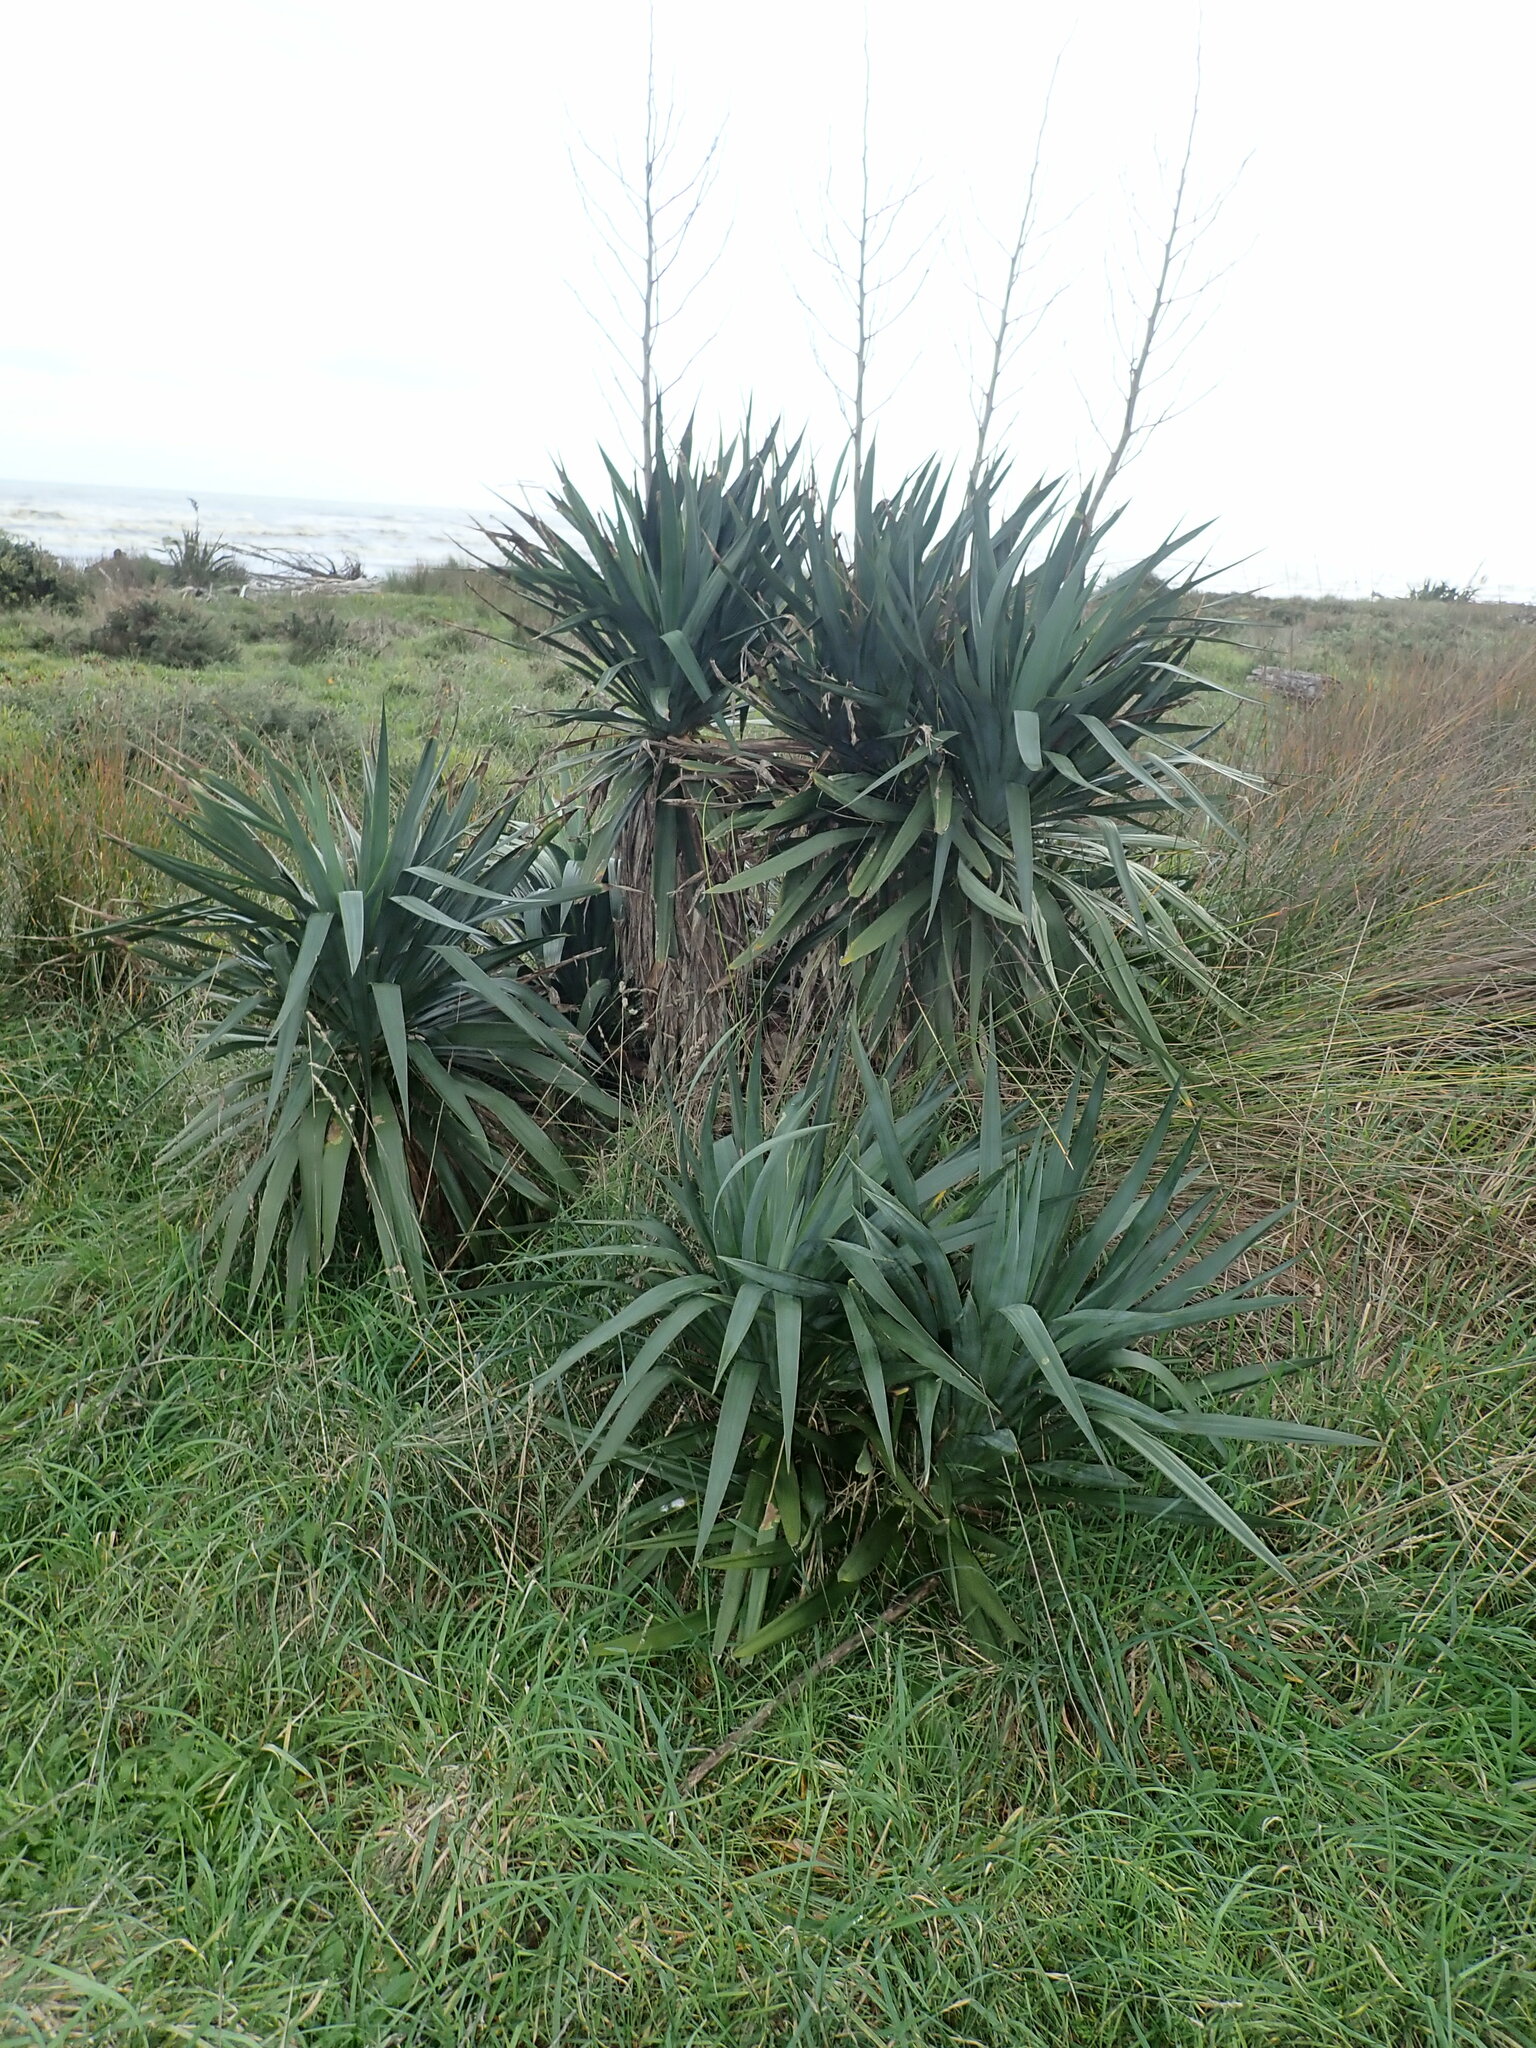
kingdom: Plantae
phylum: Tracheophyta
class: Liliopsida
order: Asparagales
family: Asparagaceae
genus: Yucca
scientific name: Yucca gloriosa
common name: Spanish-dagger
